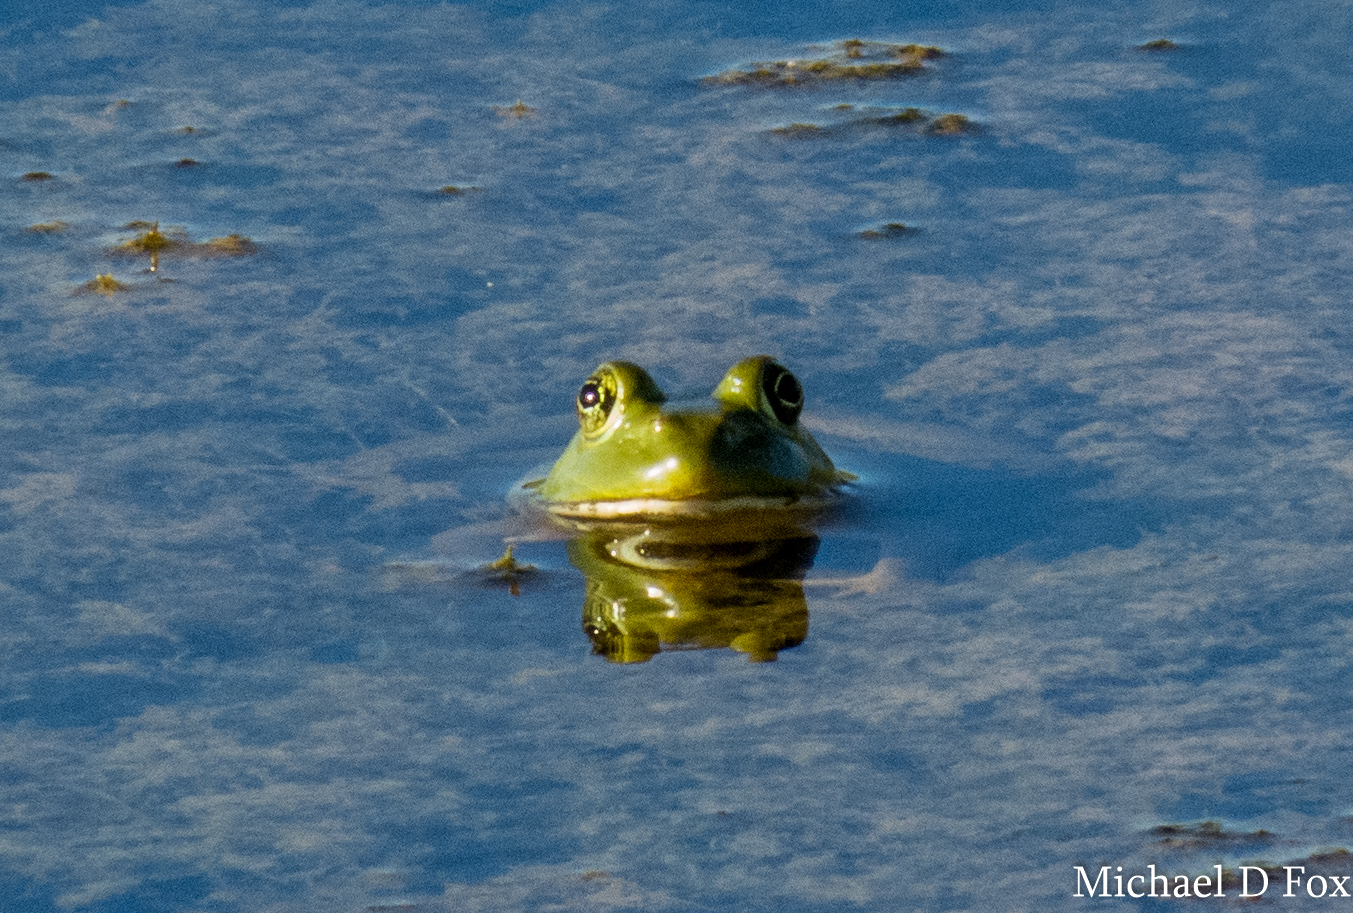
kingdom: Animalia
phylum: Chordata
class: Amphibia
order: Anura
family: Ranidae
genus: Lithobates
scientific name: Lithobates catesbeianus
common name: American bullfrog
